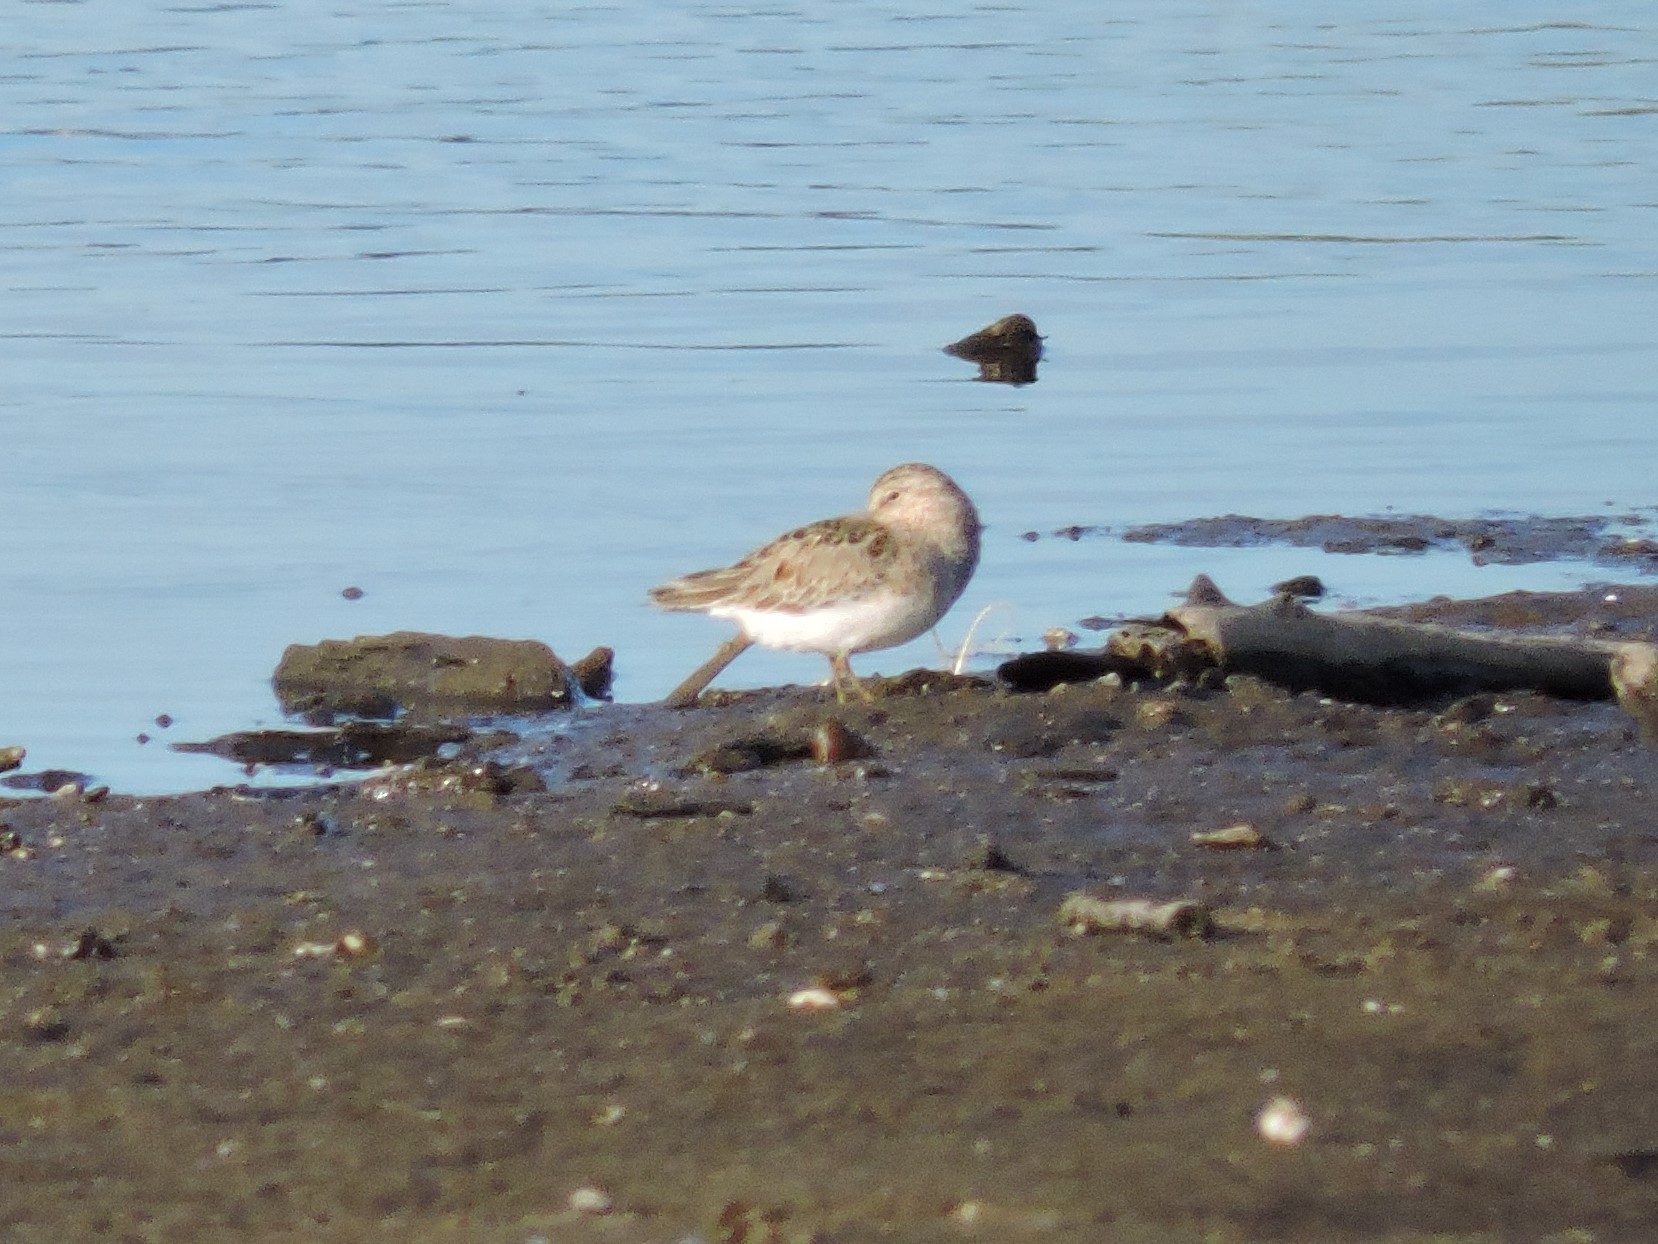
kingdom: Animalia
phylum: Chordata
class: Aves
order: Charadriiformes
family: Scolopacidae
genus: Calidris
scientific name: Calidris temminckii
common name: Temminck's stint
